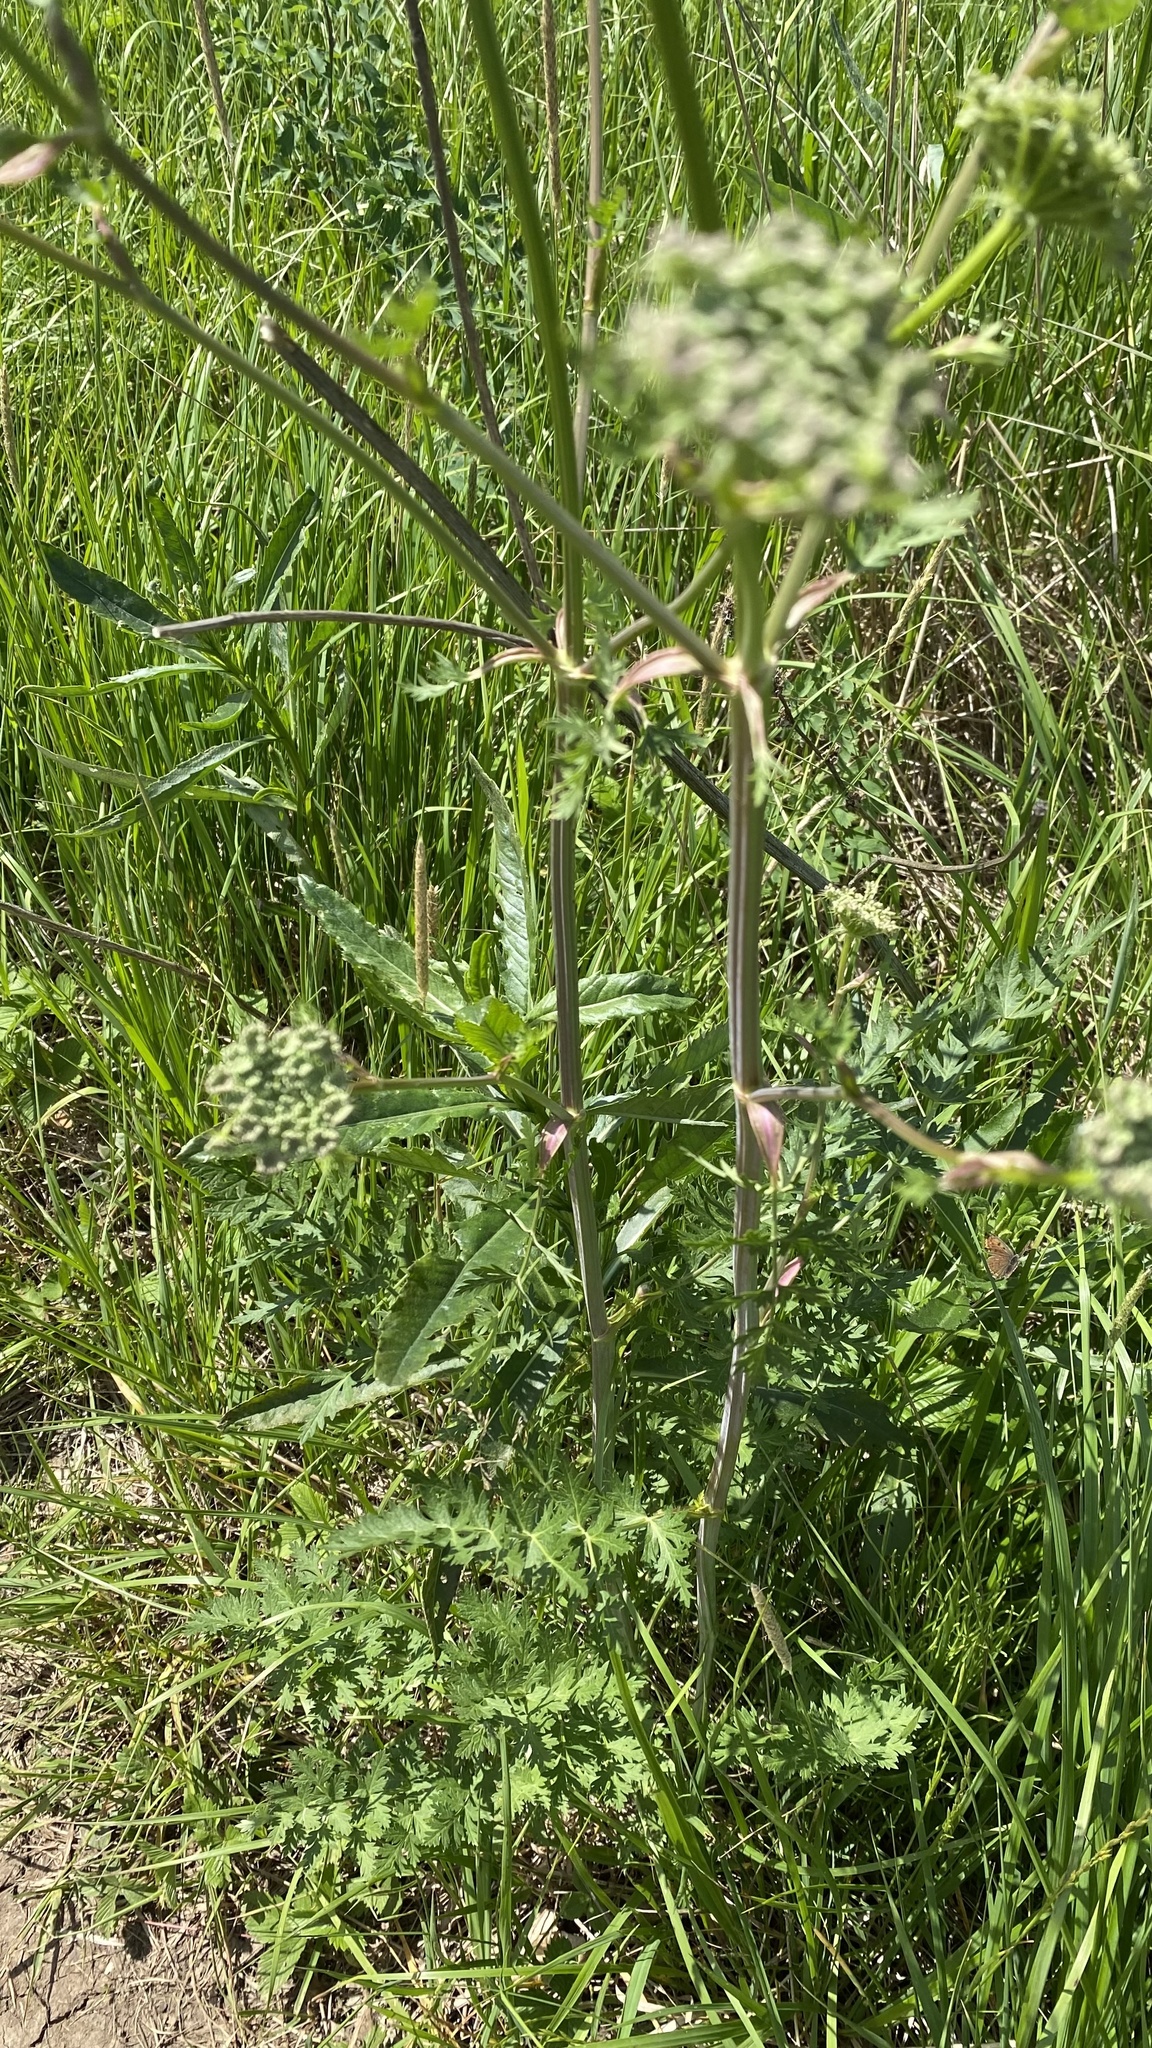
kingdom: Plantae
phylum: Tracheophyta
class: Magnoliopsida
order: Apiales
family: Apiaceae
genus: Seseli
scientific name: Seseli libanotis
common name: Mooncarrot
